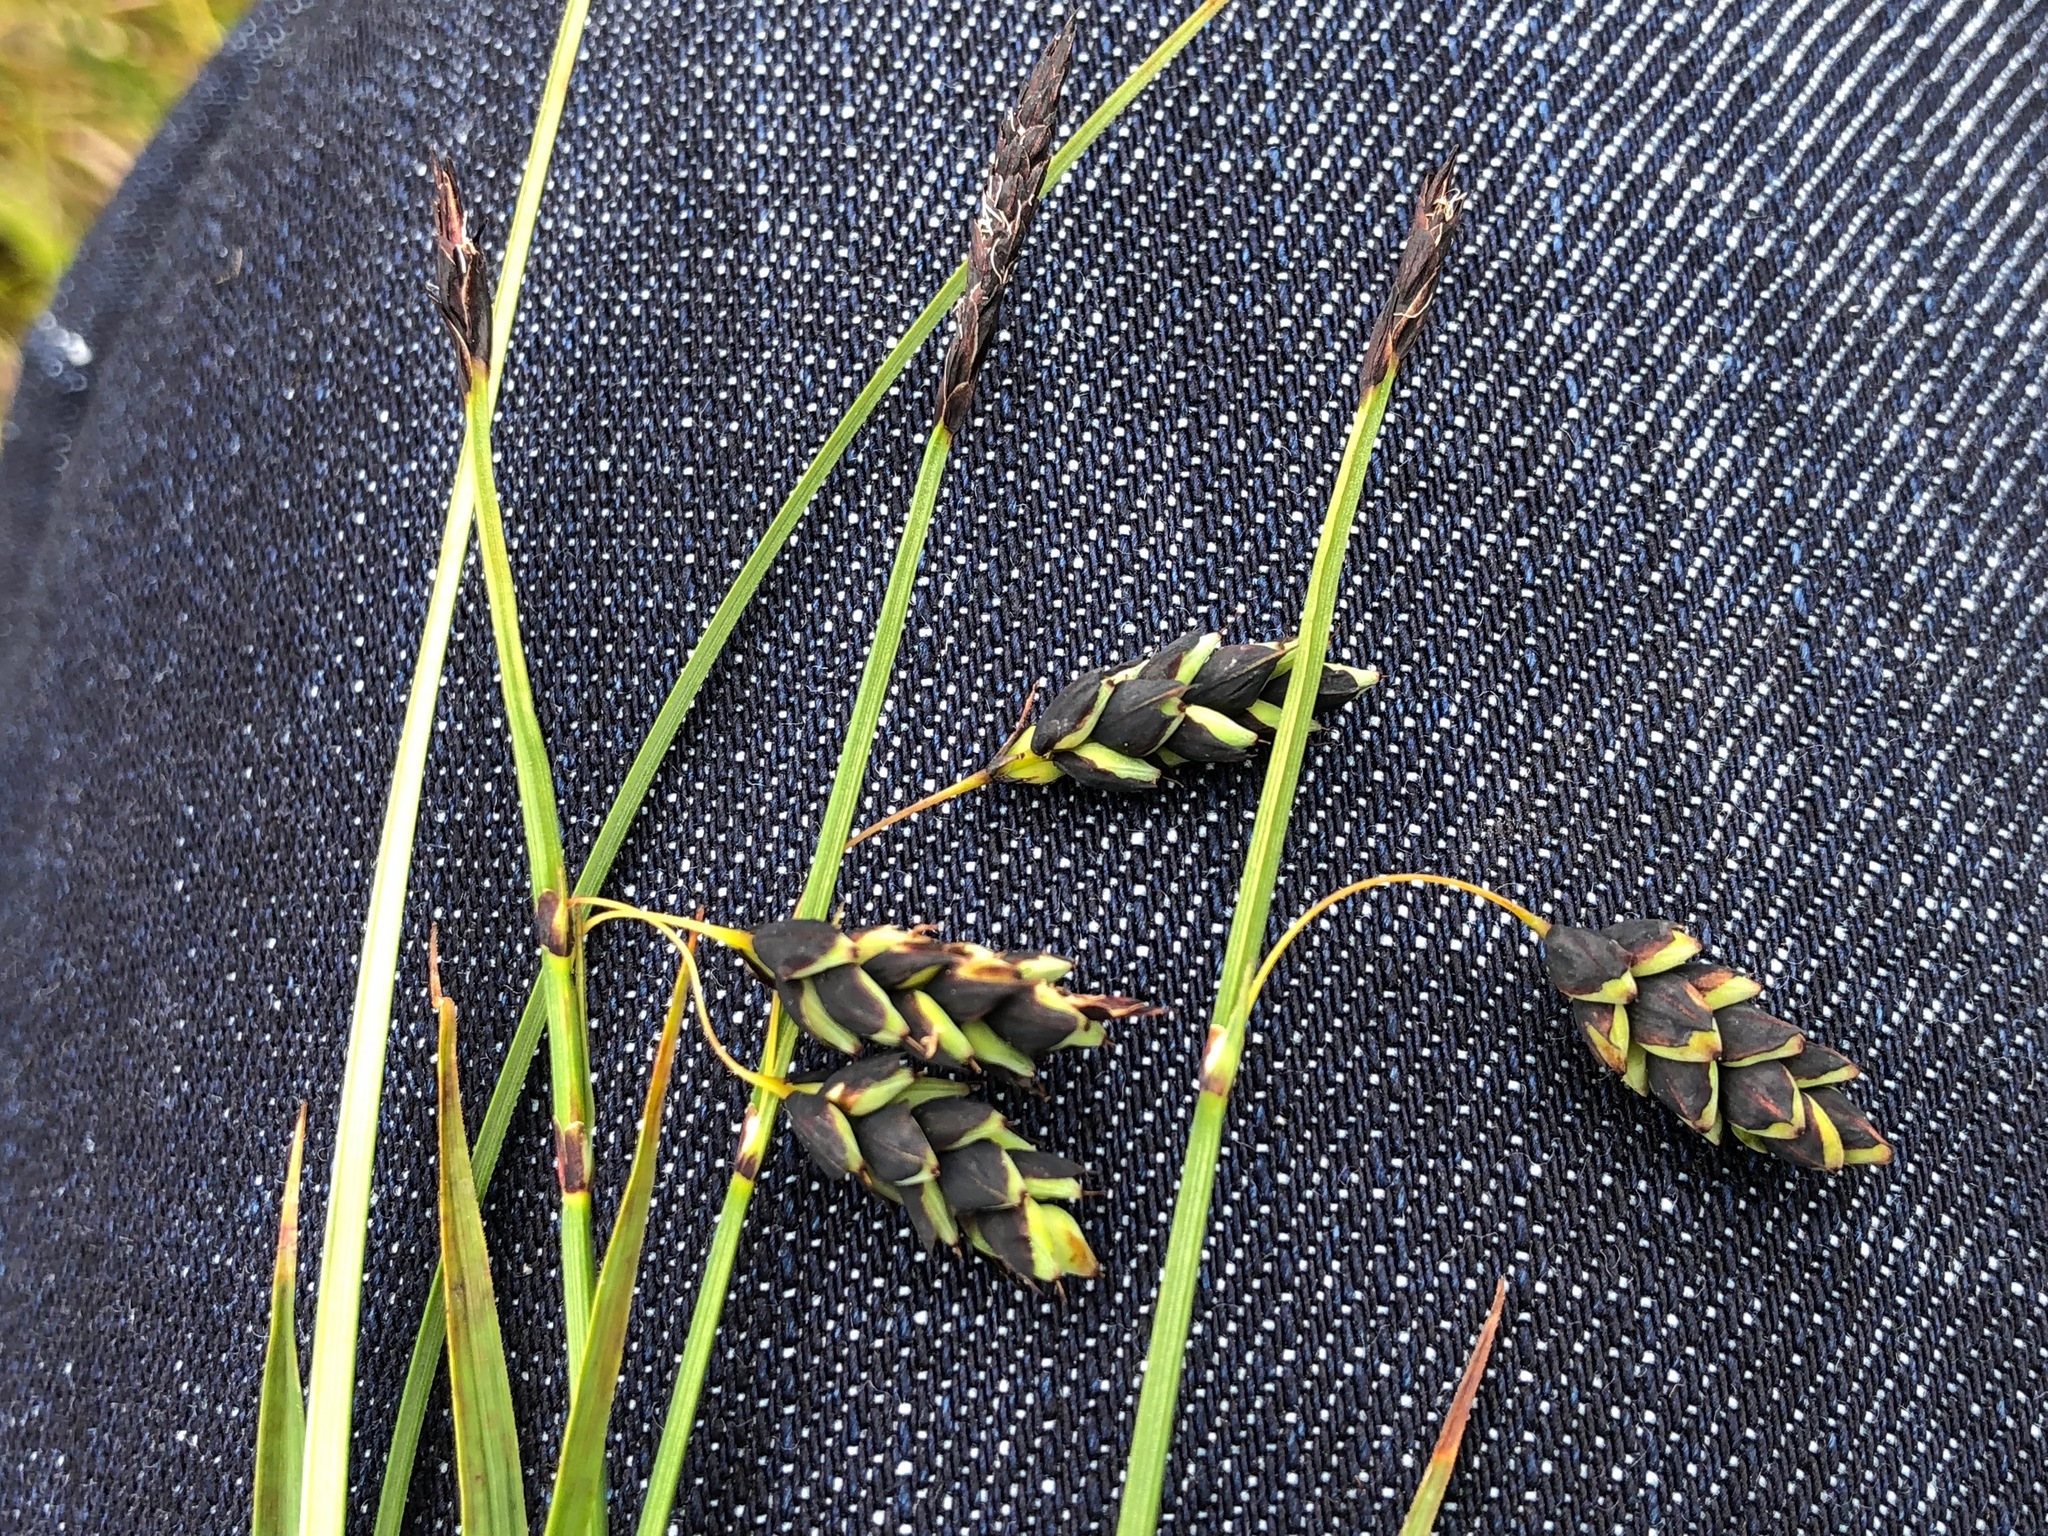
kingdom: Plantae
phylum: Tracheophyta
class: Liliopsida
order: Poales
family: Cyperaceae
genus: Carex
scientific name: Carex rariflora
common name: Loose-flowered alpine sedge
